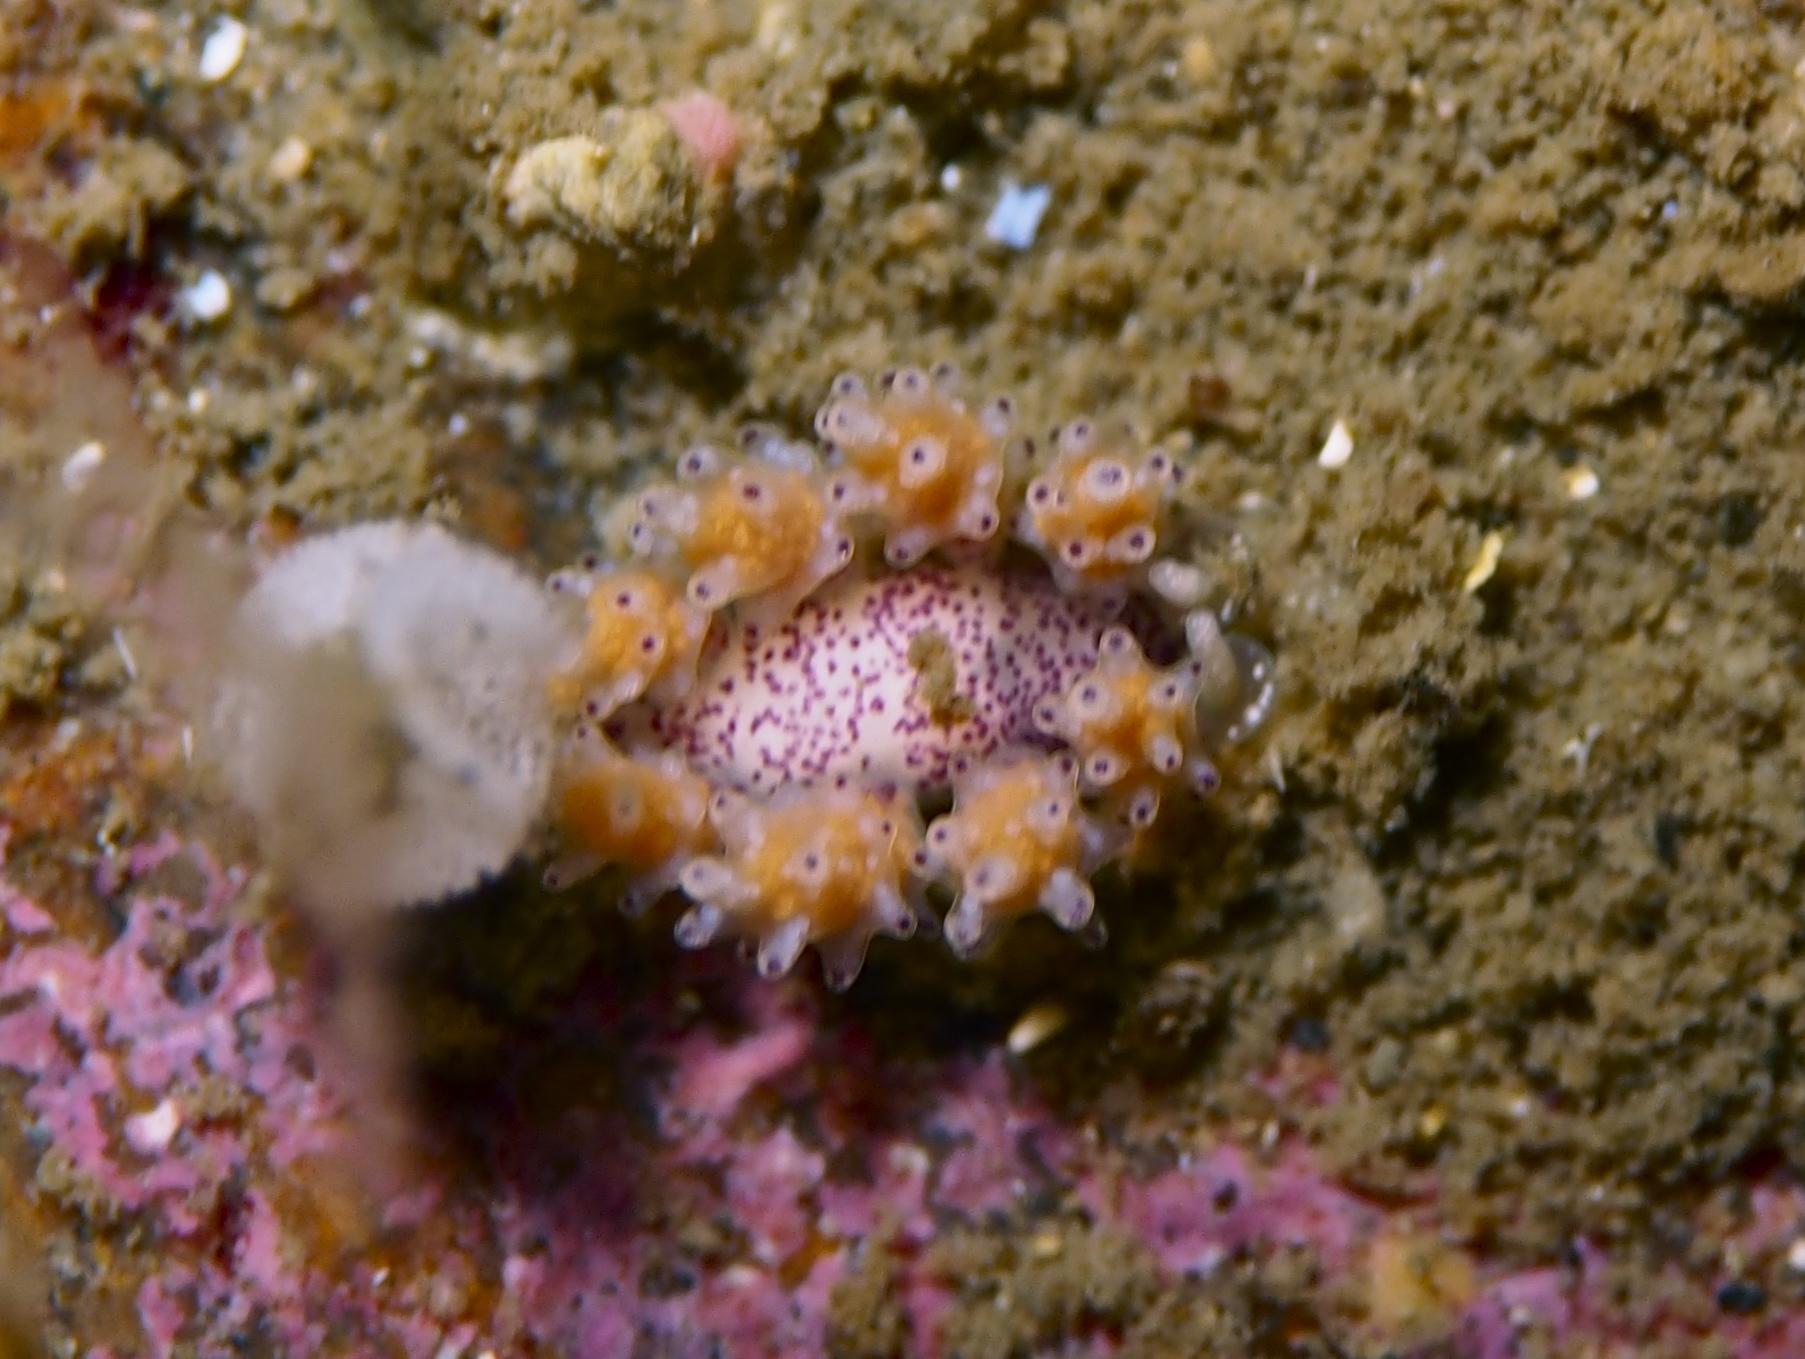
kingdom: Animalia
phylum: Mollusca
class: Gastropoda
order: Nudibranchia
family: Dotidae
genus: Doto
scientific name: Doto dunnei
